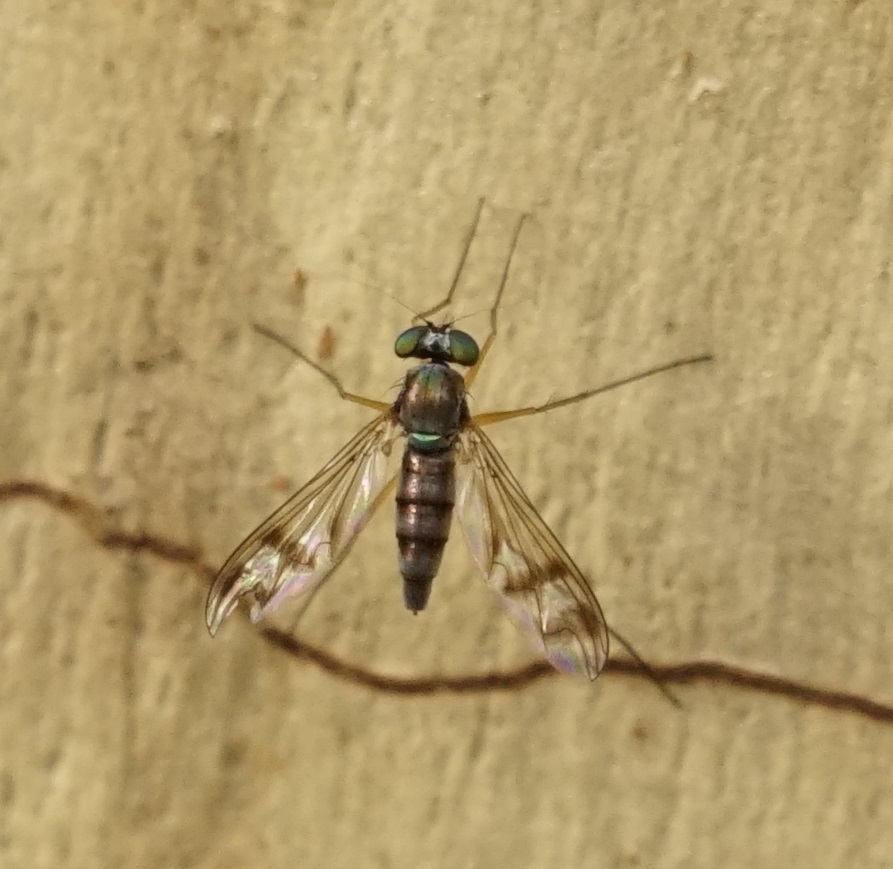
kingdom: Animalia
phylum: Arthropoda
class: Insecta
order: Diptera
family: Dolichopodidae
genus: Heteropsilopus
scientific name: Heteropsilopus squamifer
